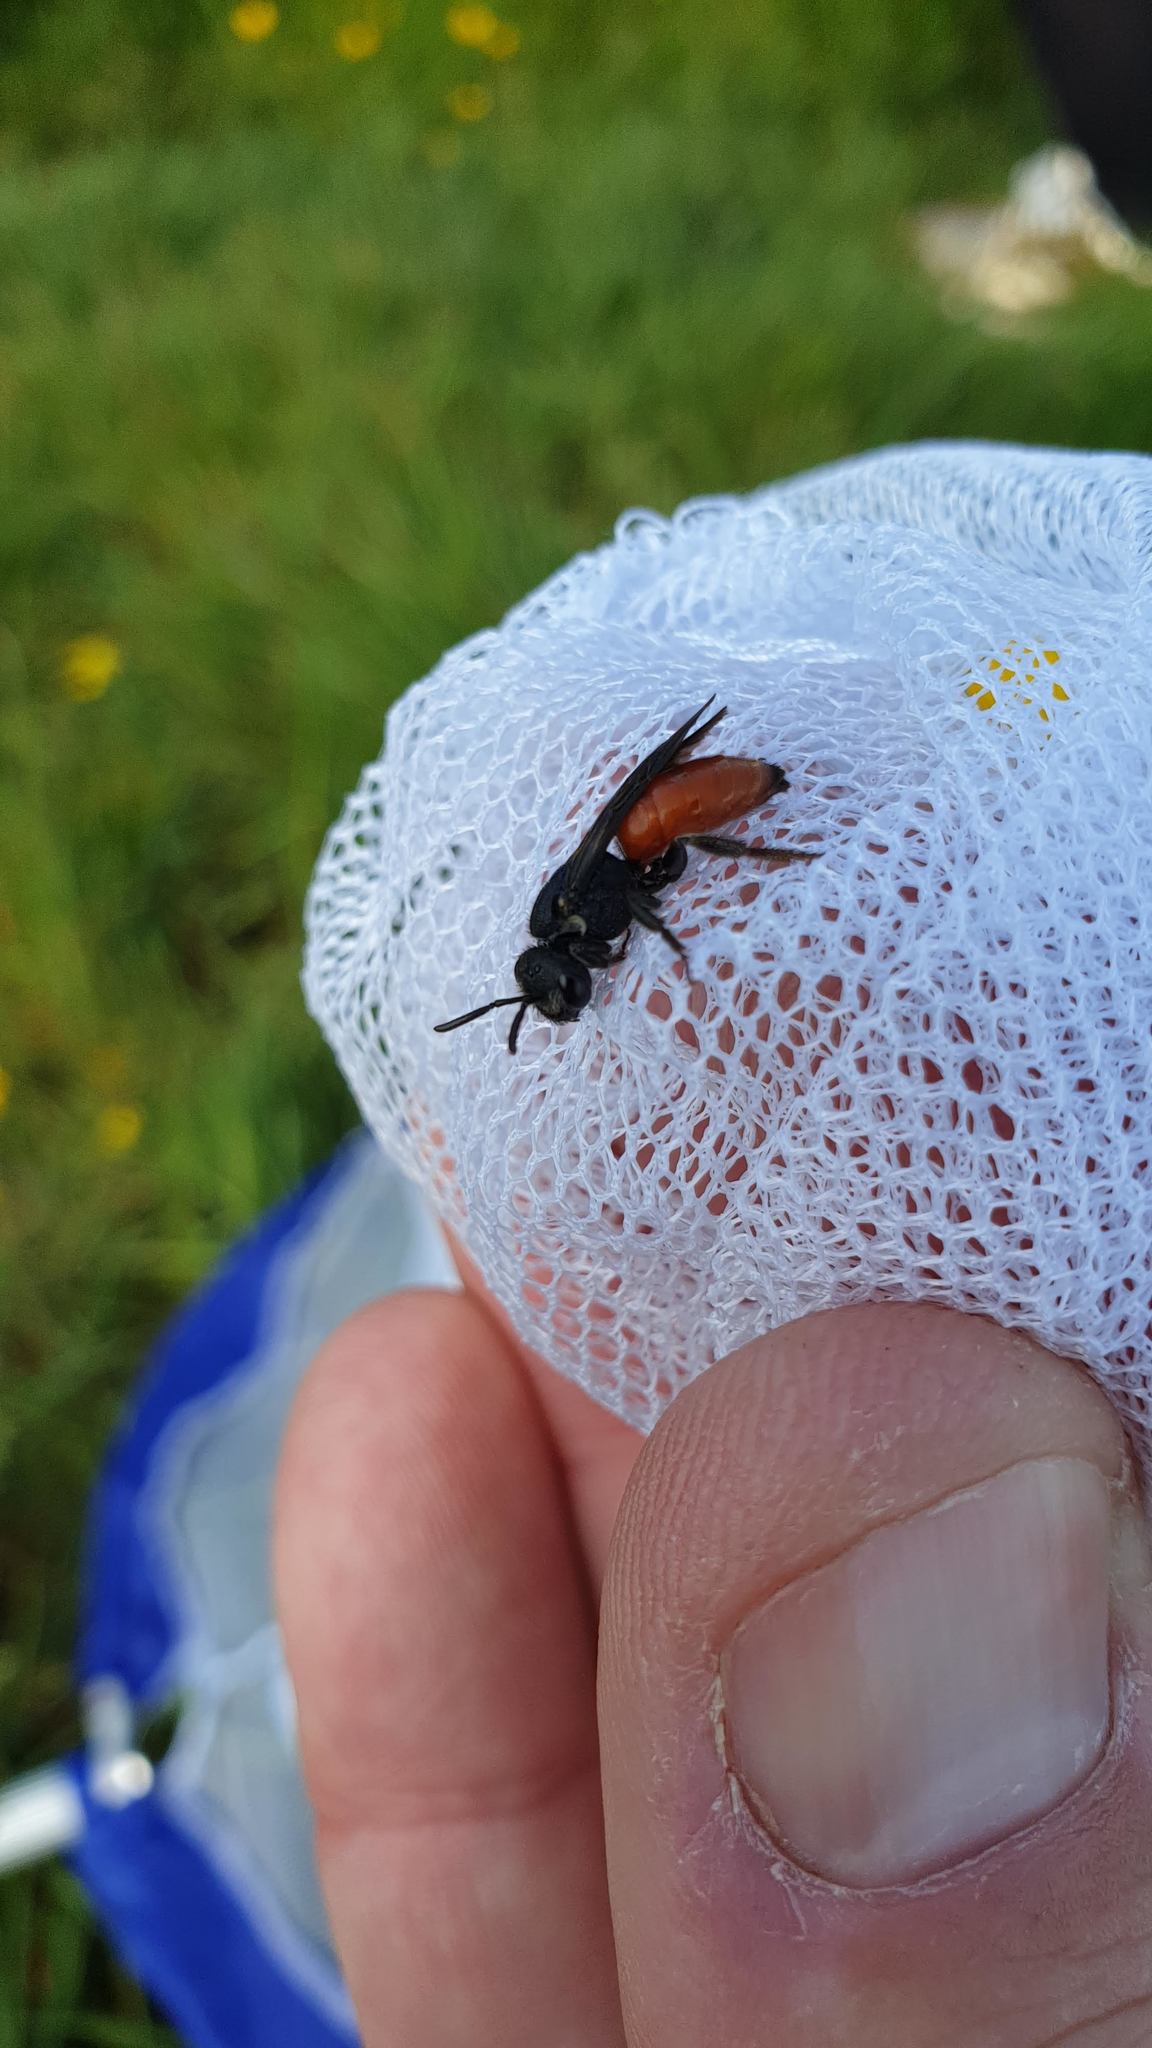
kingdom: Animalia
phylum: Arthropoda
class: Insecta
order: Hymenoptera
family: Halictidae
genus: Sphecodes
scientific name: Sphecodes albilabris
